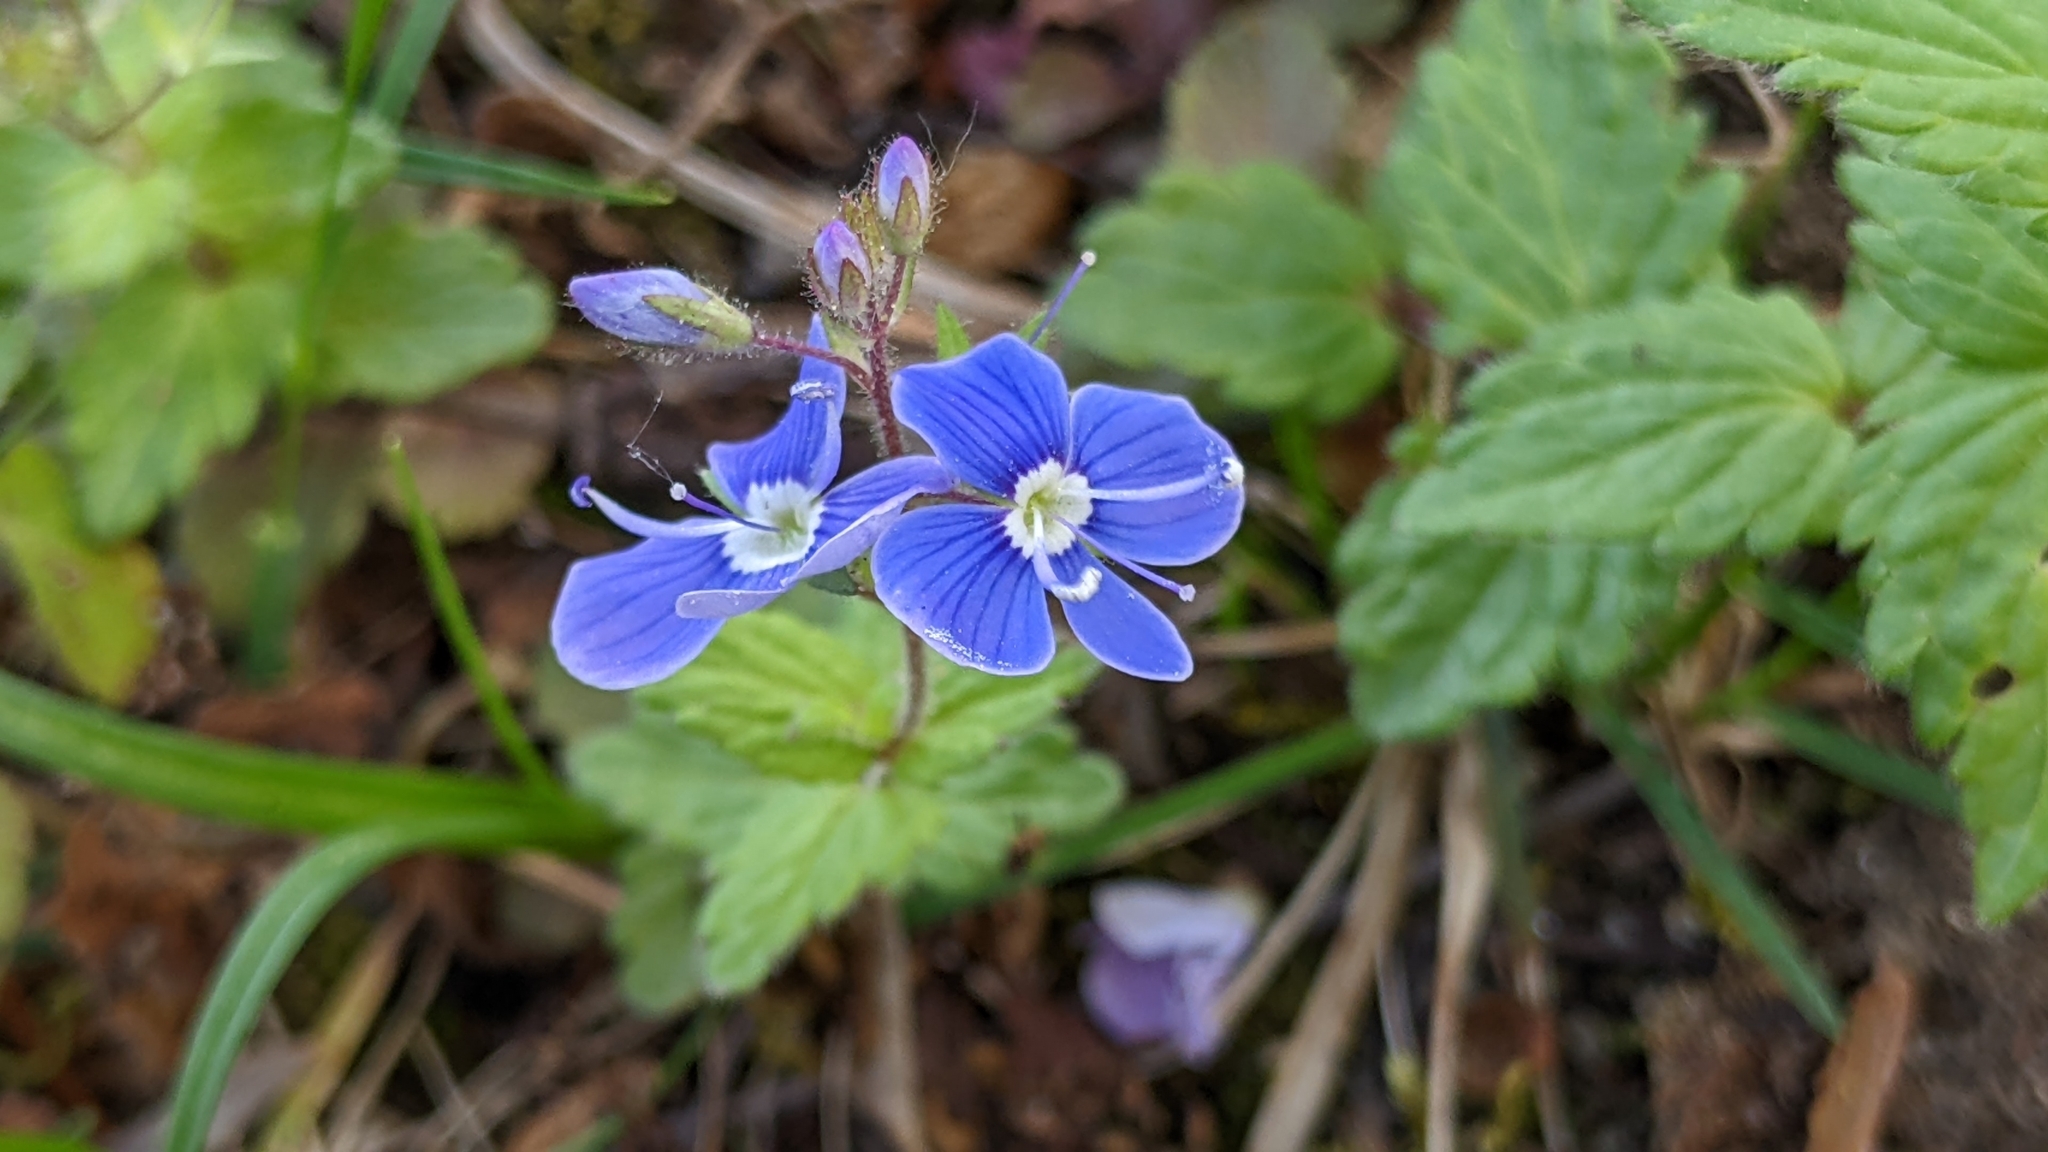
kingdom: Plantae
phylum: Tracheophyta
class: Magnoliopsida
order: Lamiales
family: Plantaginaceae
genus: Veronica
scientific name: Veronica chamaedrys
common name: Germander speedwell
